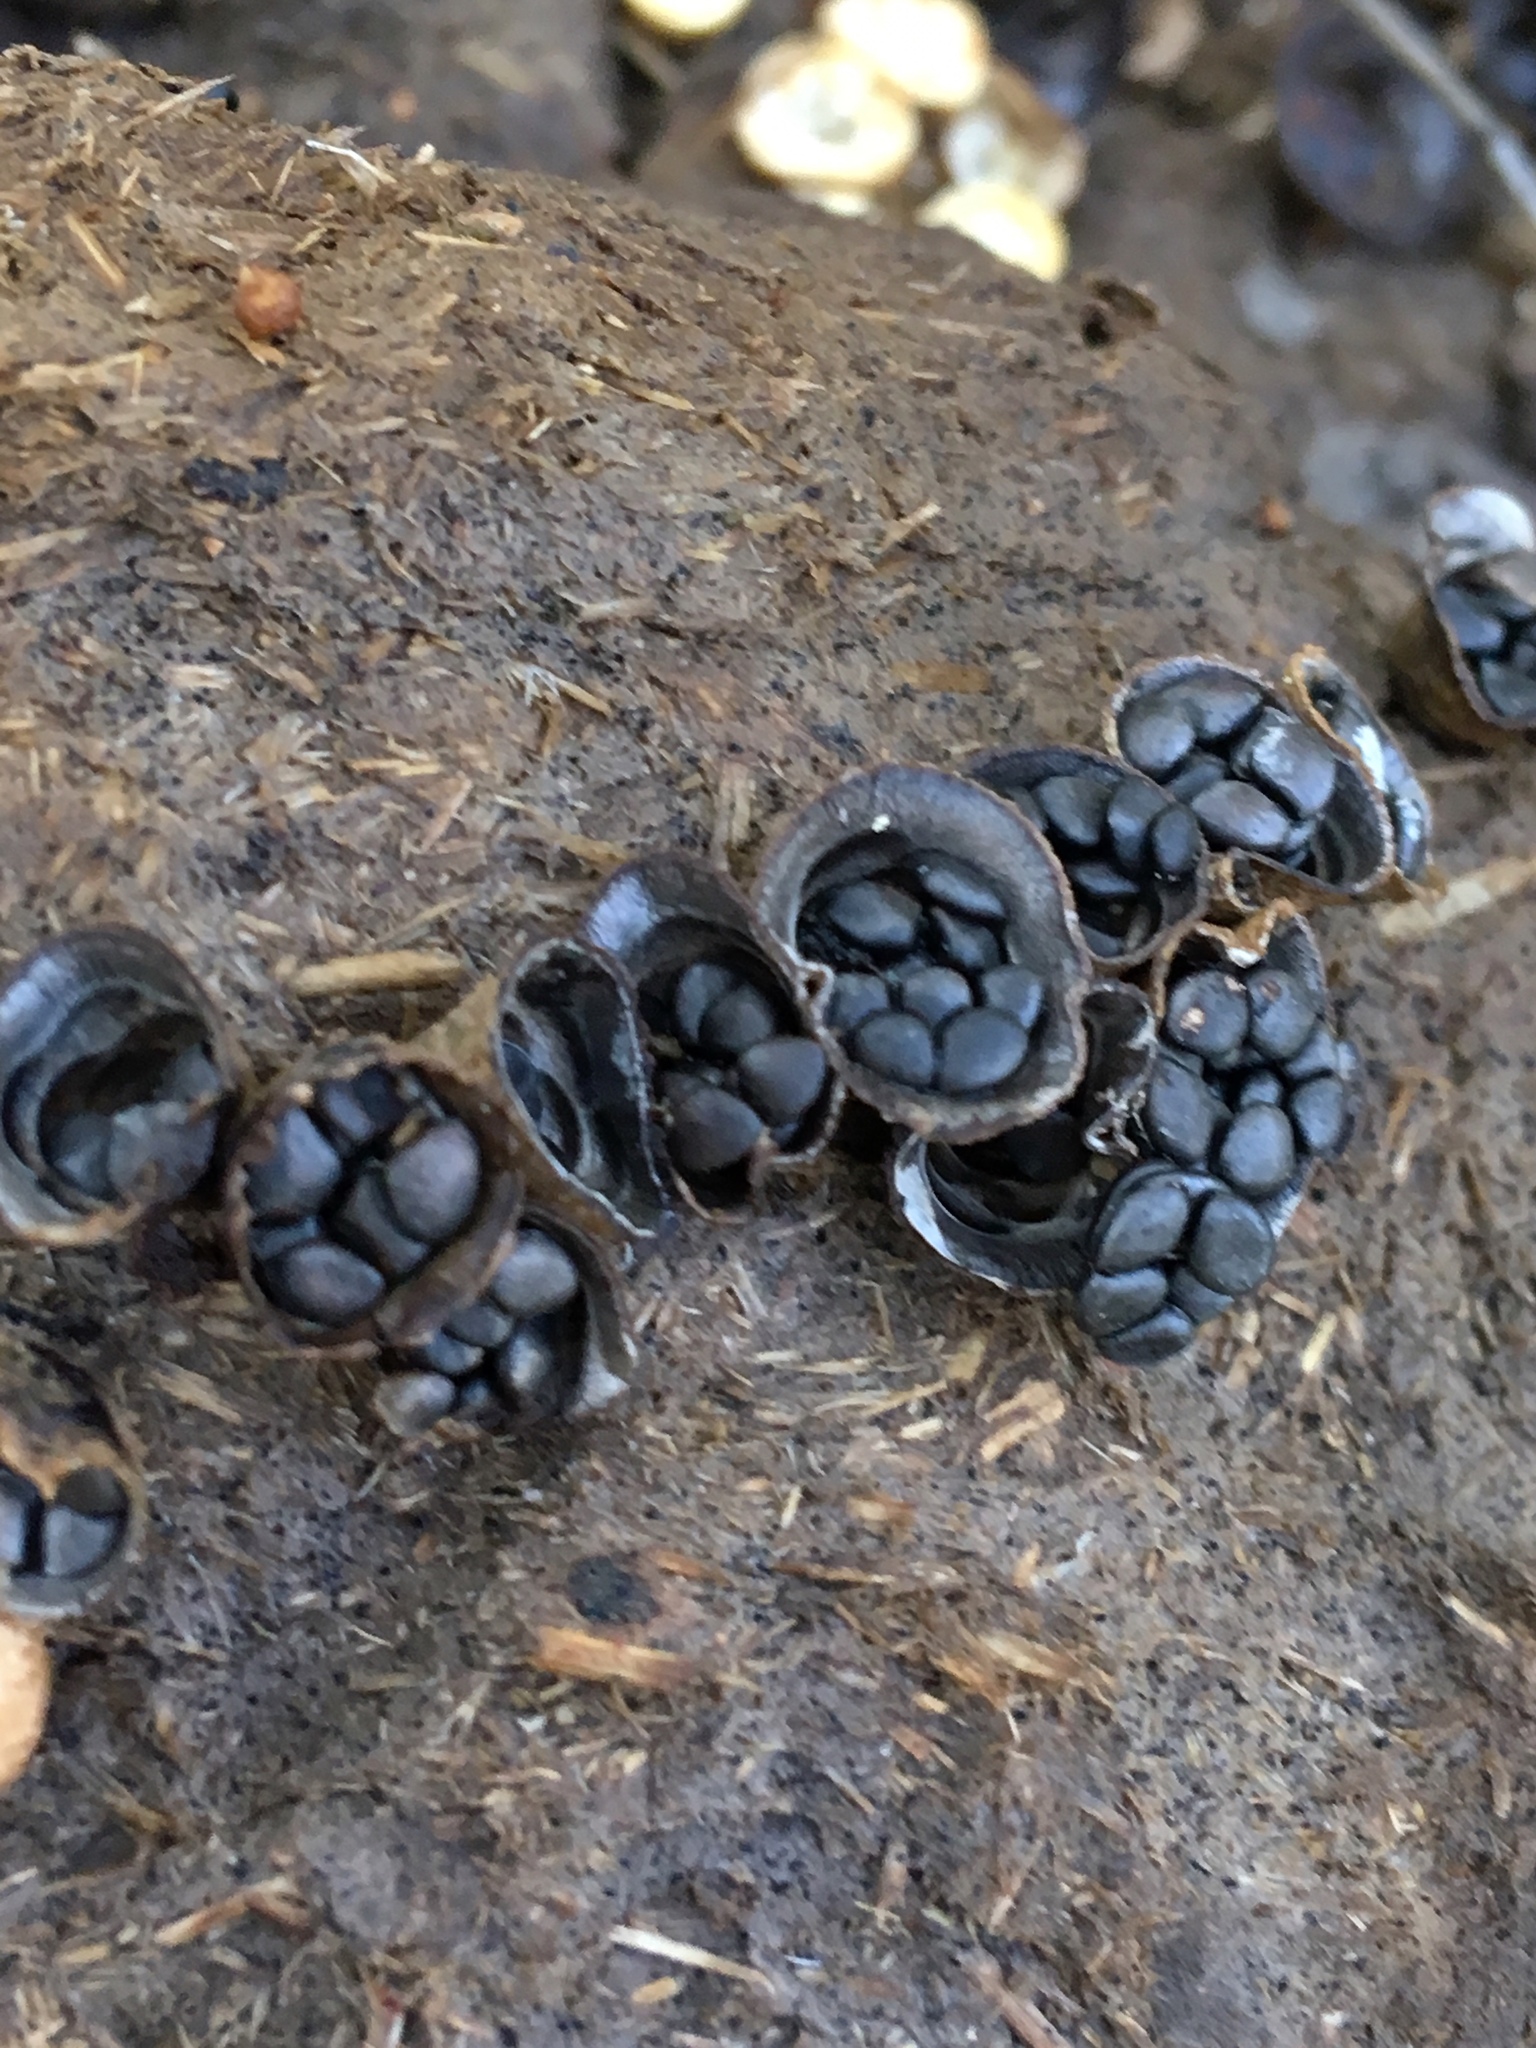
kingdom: Fungi
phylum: Basidiomycota
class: Agaricomycetes
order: Agaricales
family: Agaricaceae
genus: Cyathus
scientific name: Cyathus stercoreus
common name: Dung bird's nest
